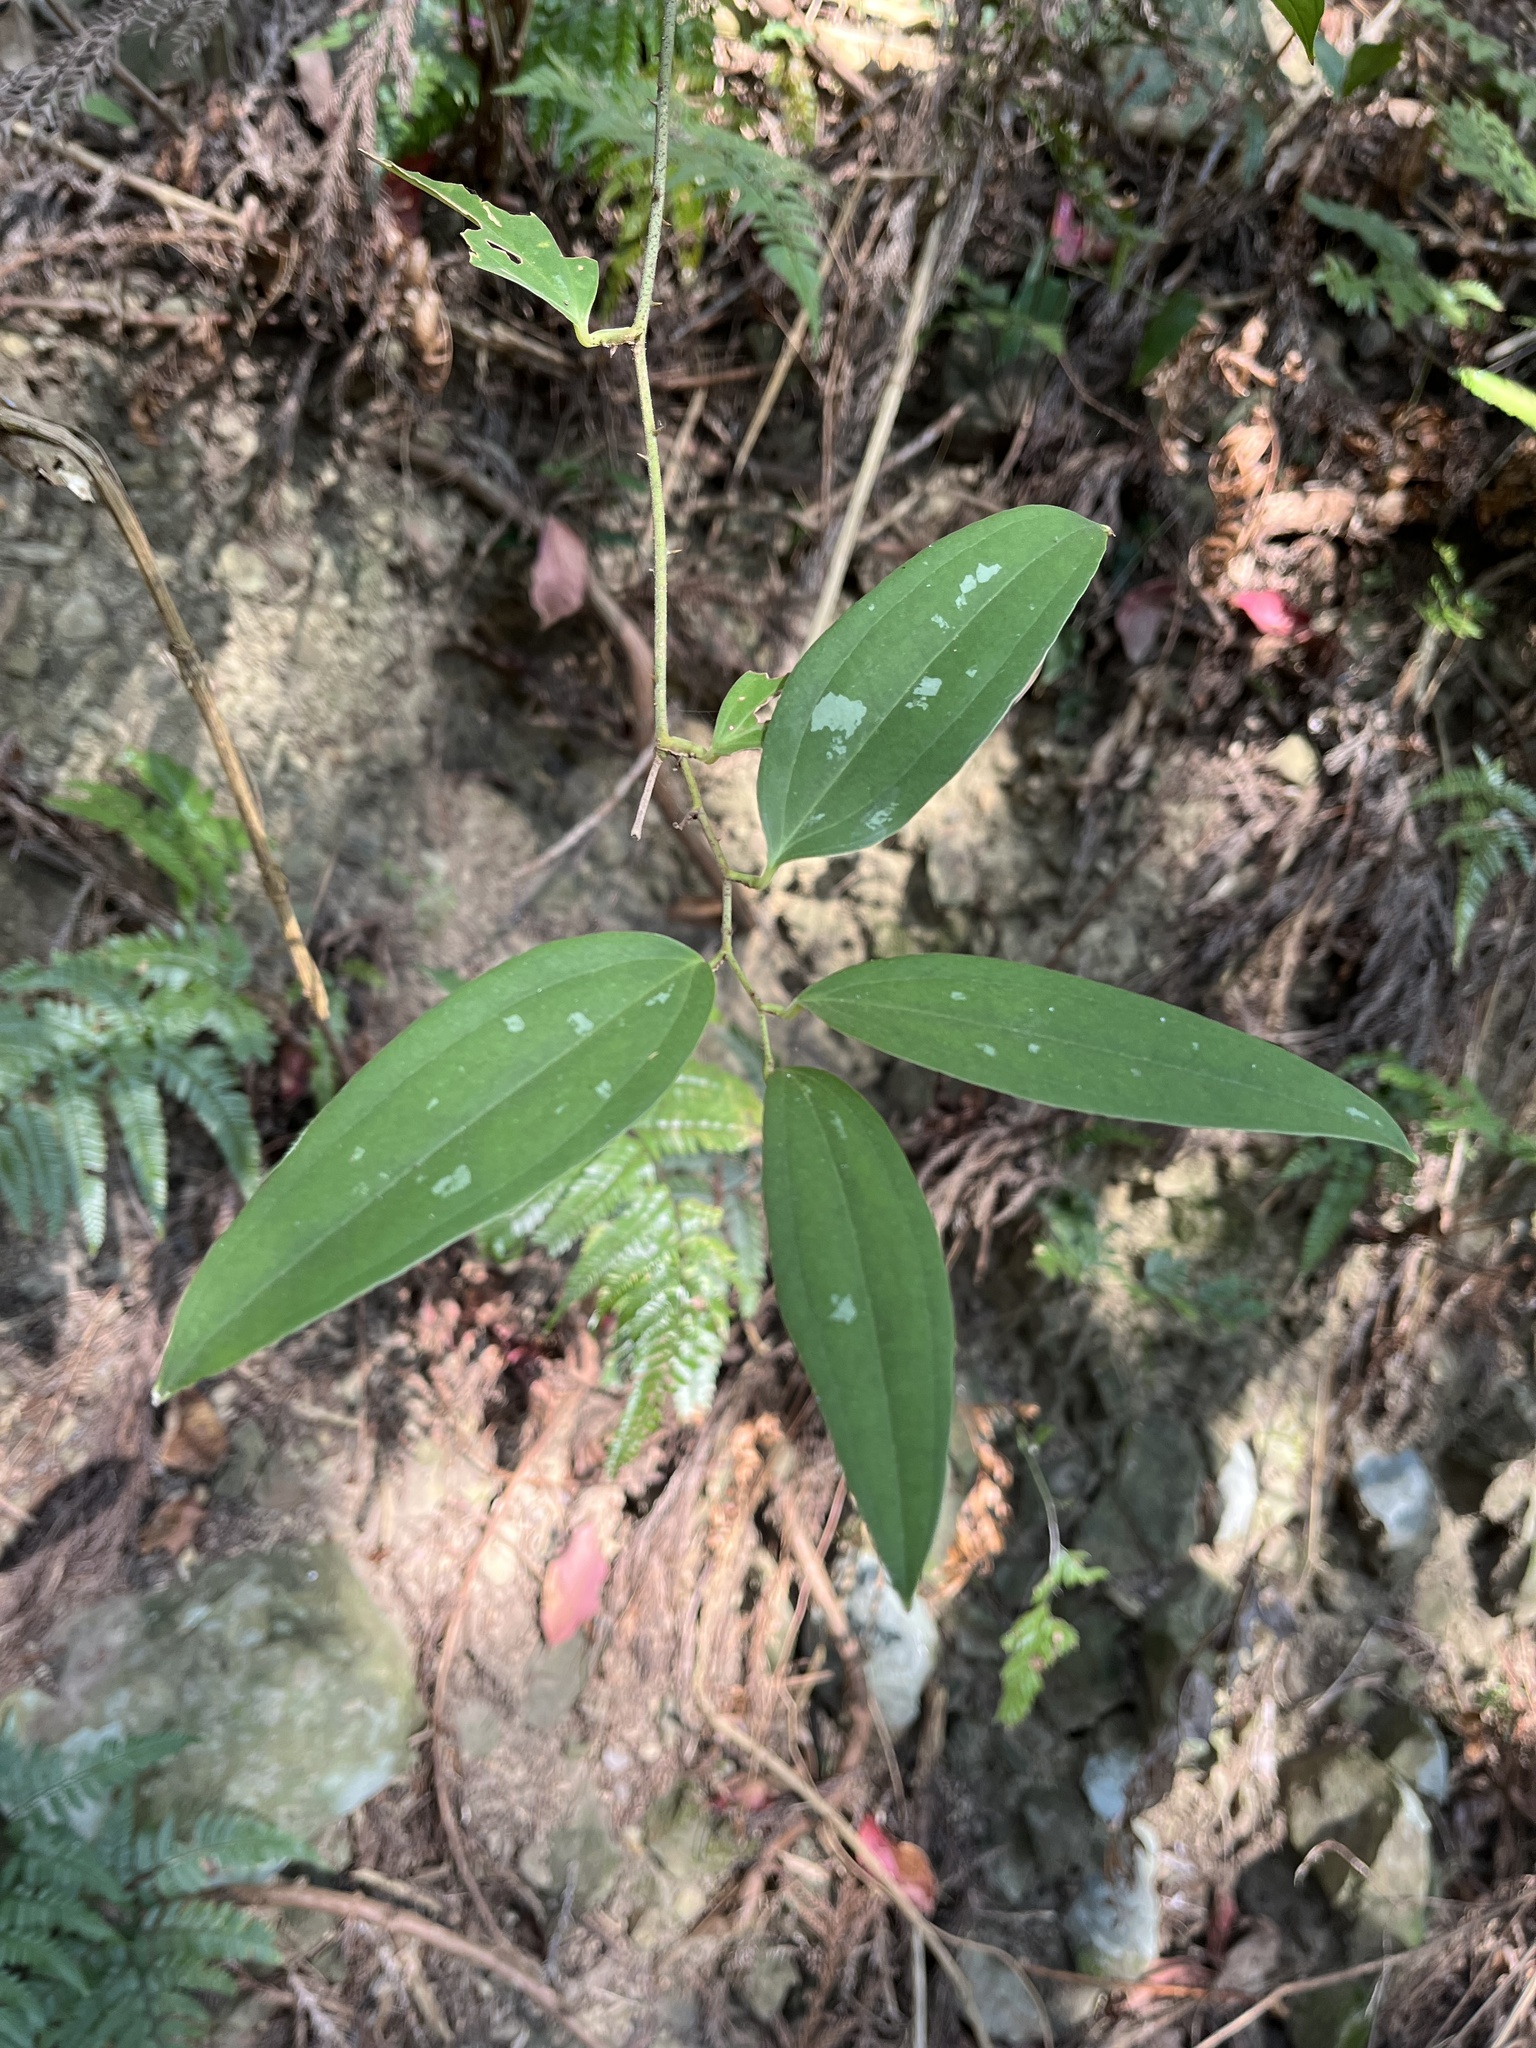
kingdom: Plantae
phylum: Tracheophyta
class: Liliopsida
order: Liliales
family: Smilacaceae
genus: Smilax
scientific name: Smilax aspericaulis
